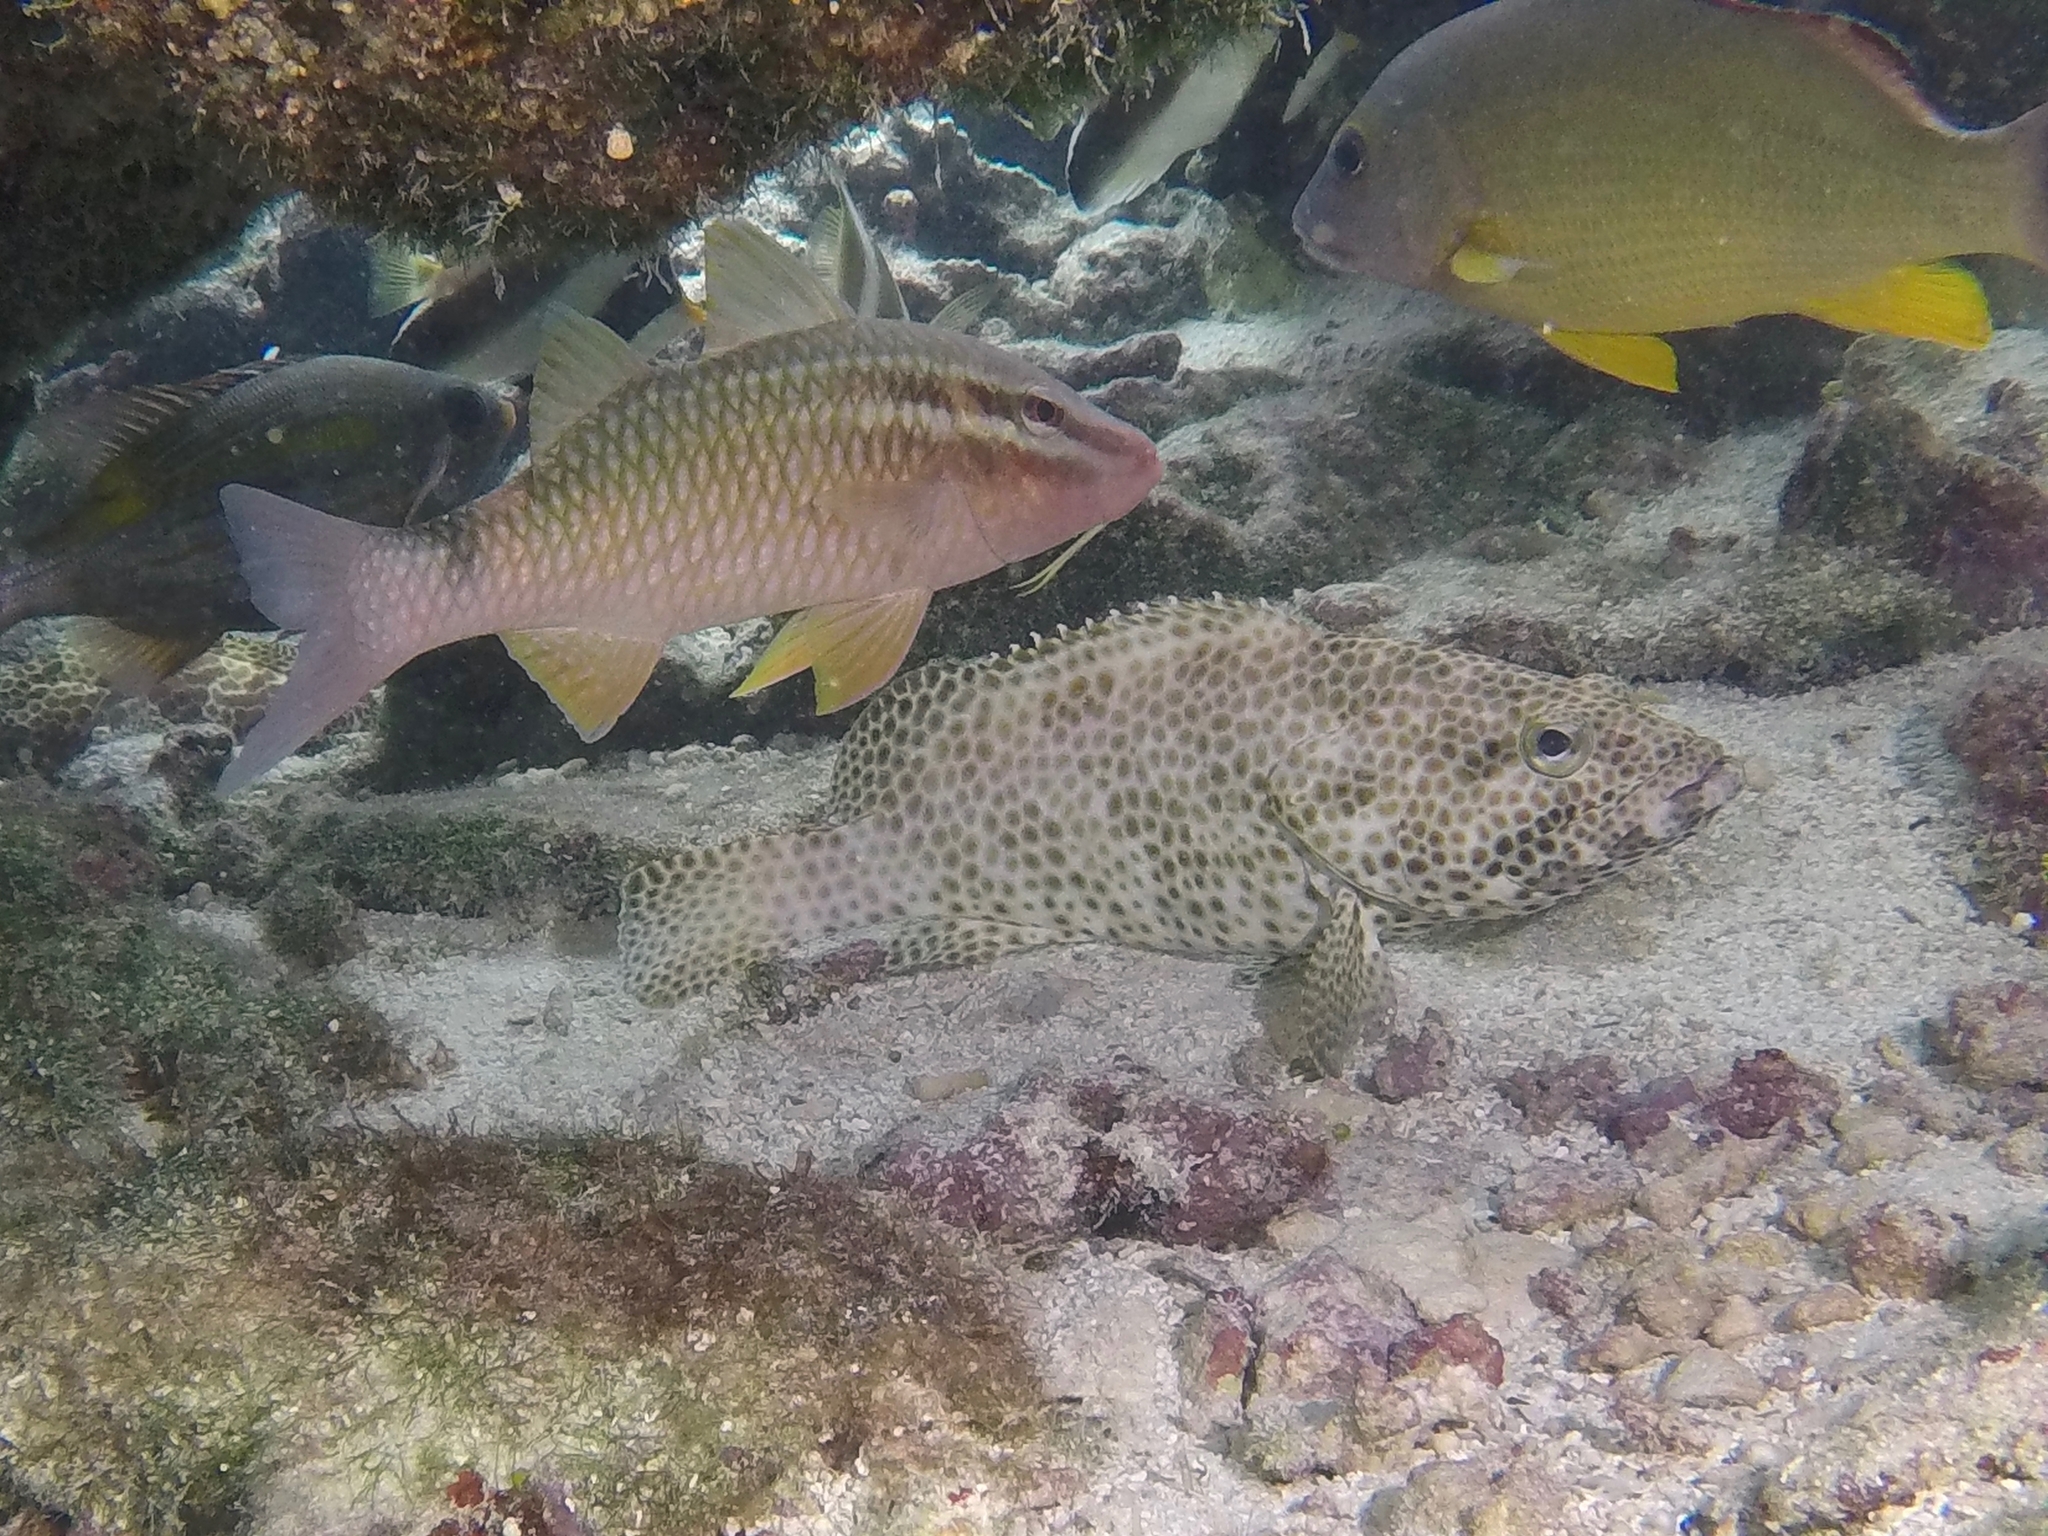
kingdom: Animalia
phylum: Chordata
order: Perciformes
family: Serranidae
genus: Epinephelus
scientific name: Epinephelus spilotoceps
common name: Foursaddle grouper
